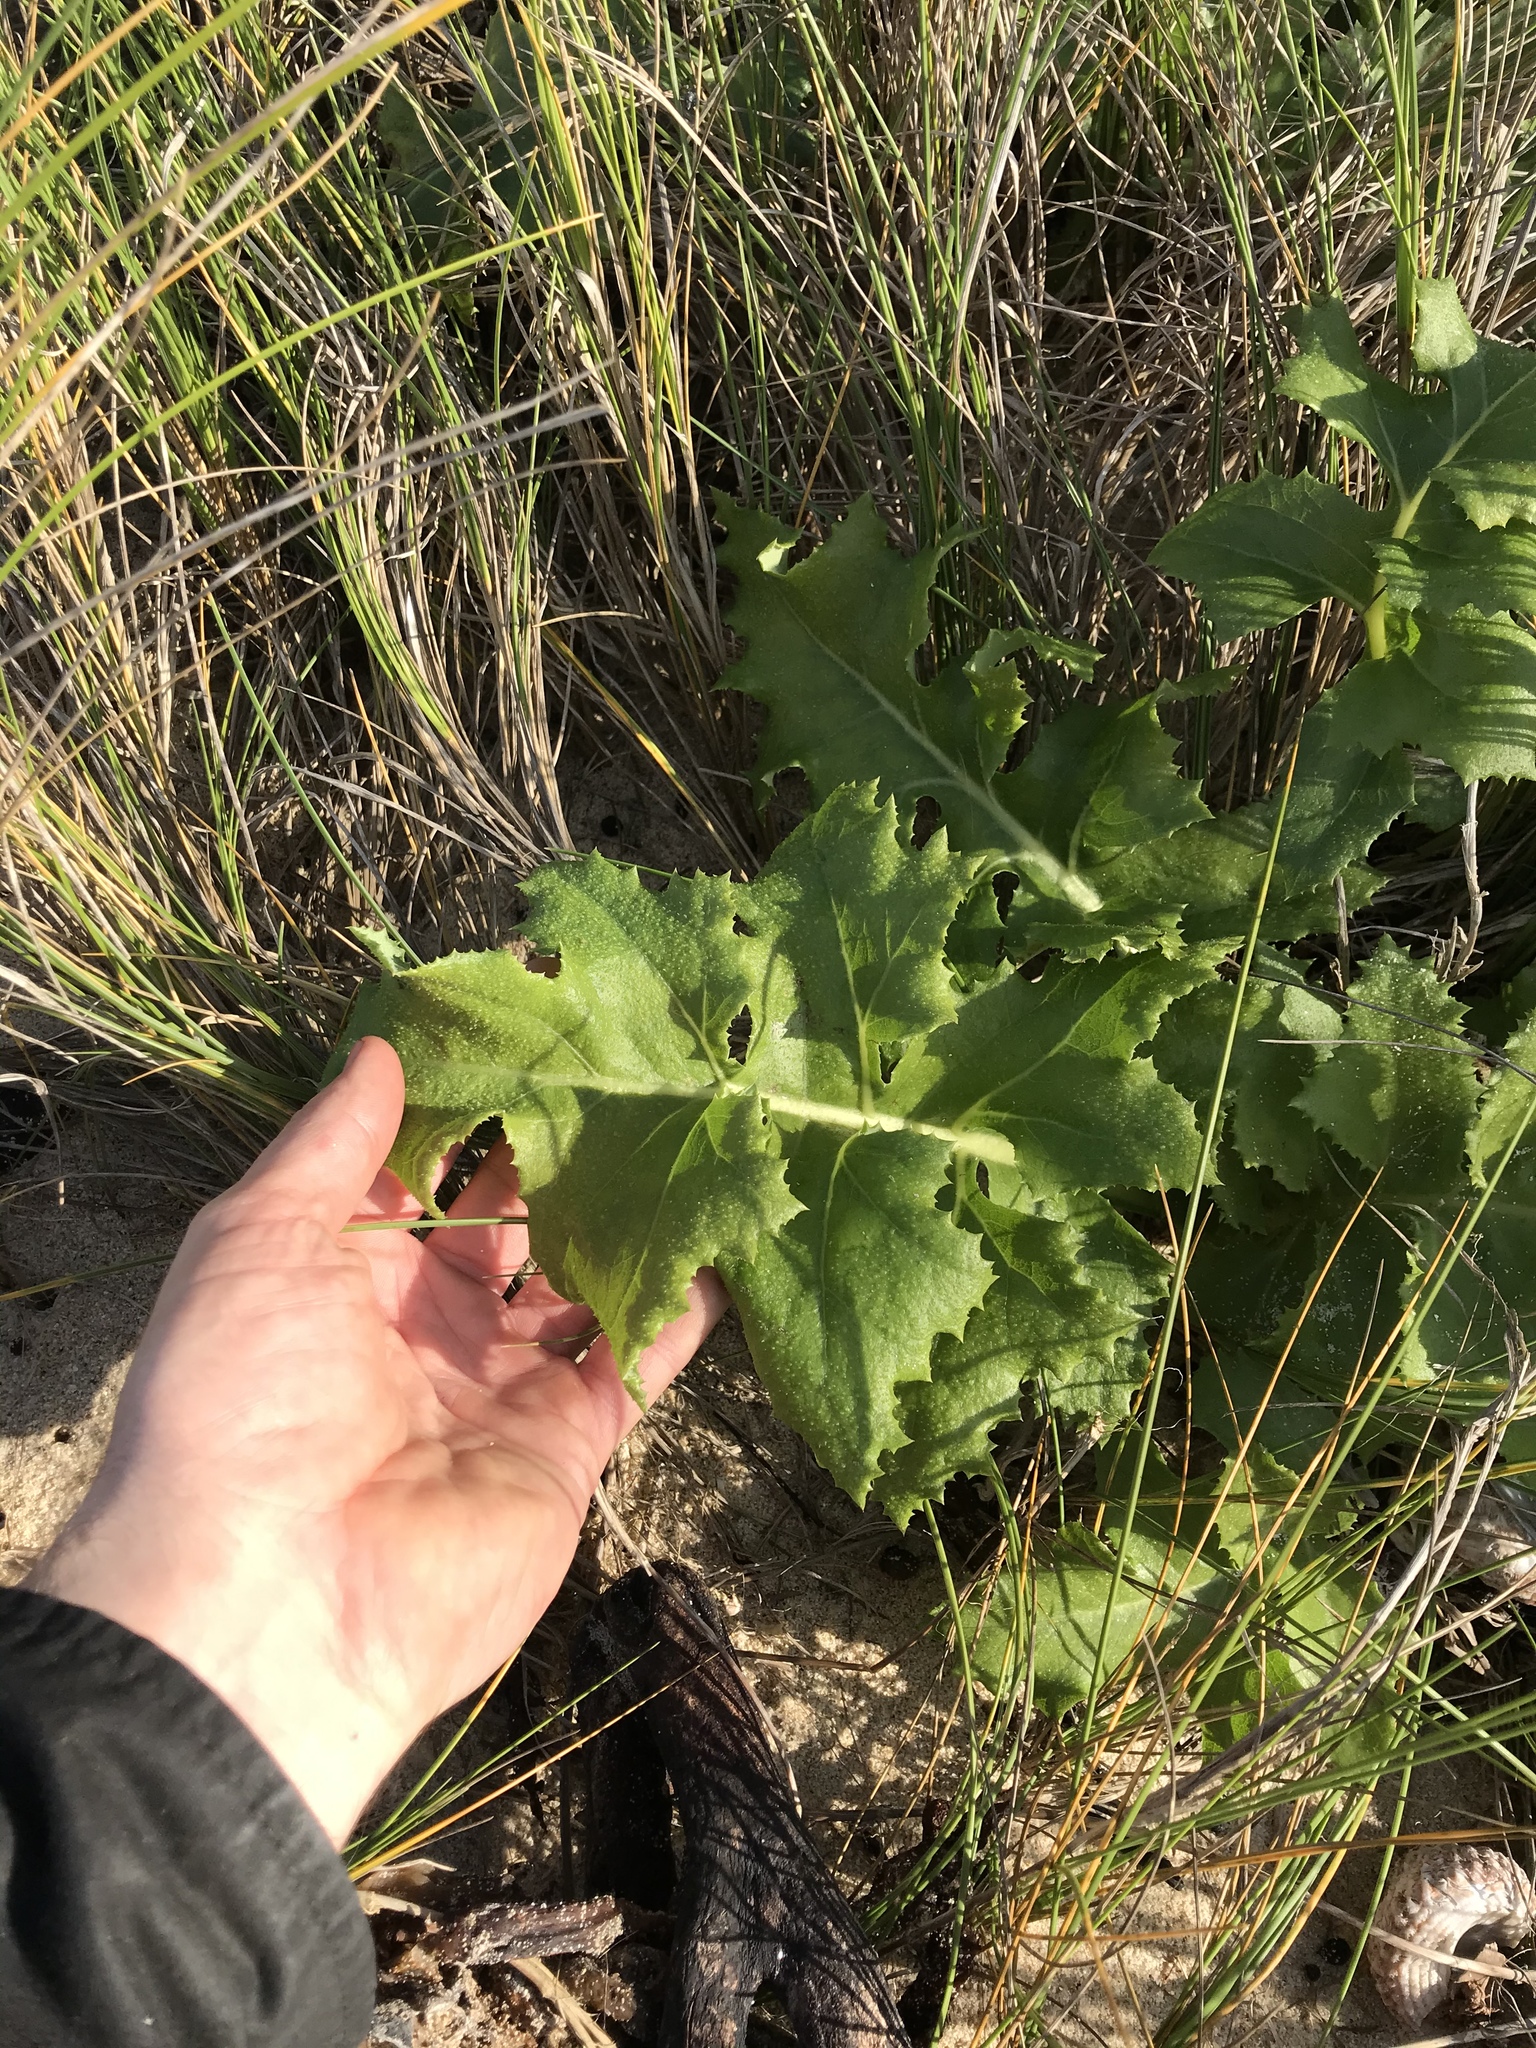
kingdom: Plantae
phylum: Tracheophyta
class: Magnoliopsida
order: Asterales
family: Asteraceae
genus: Sonchus
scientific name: Sonchus grandifolius
